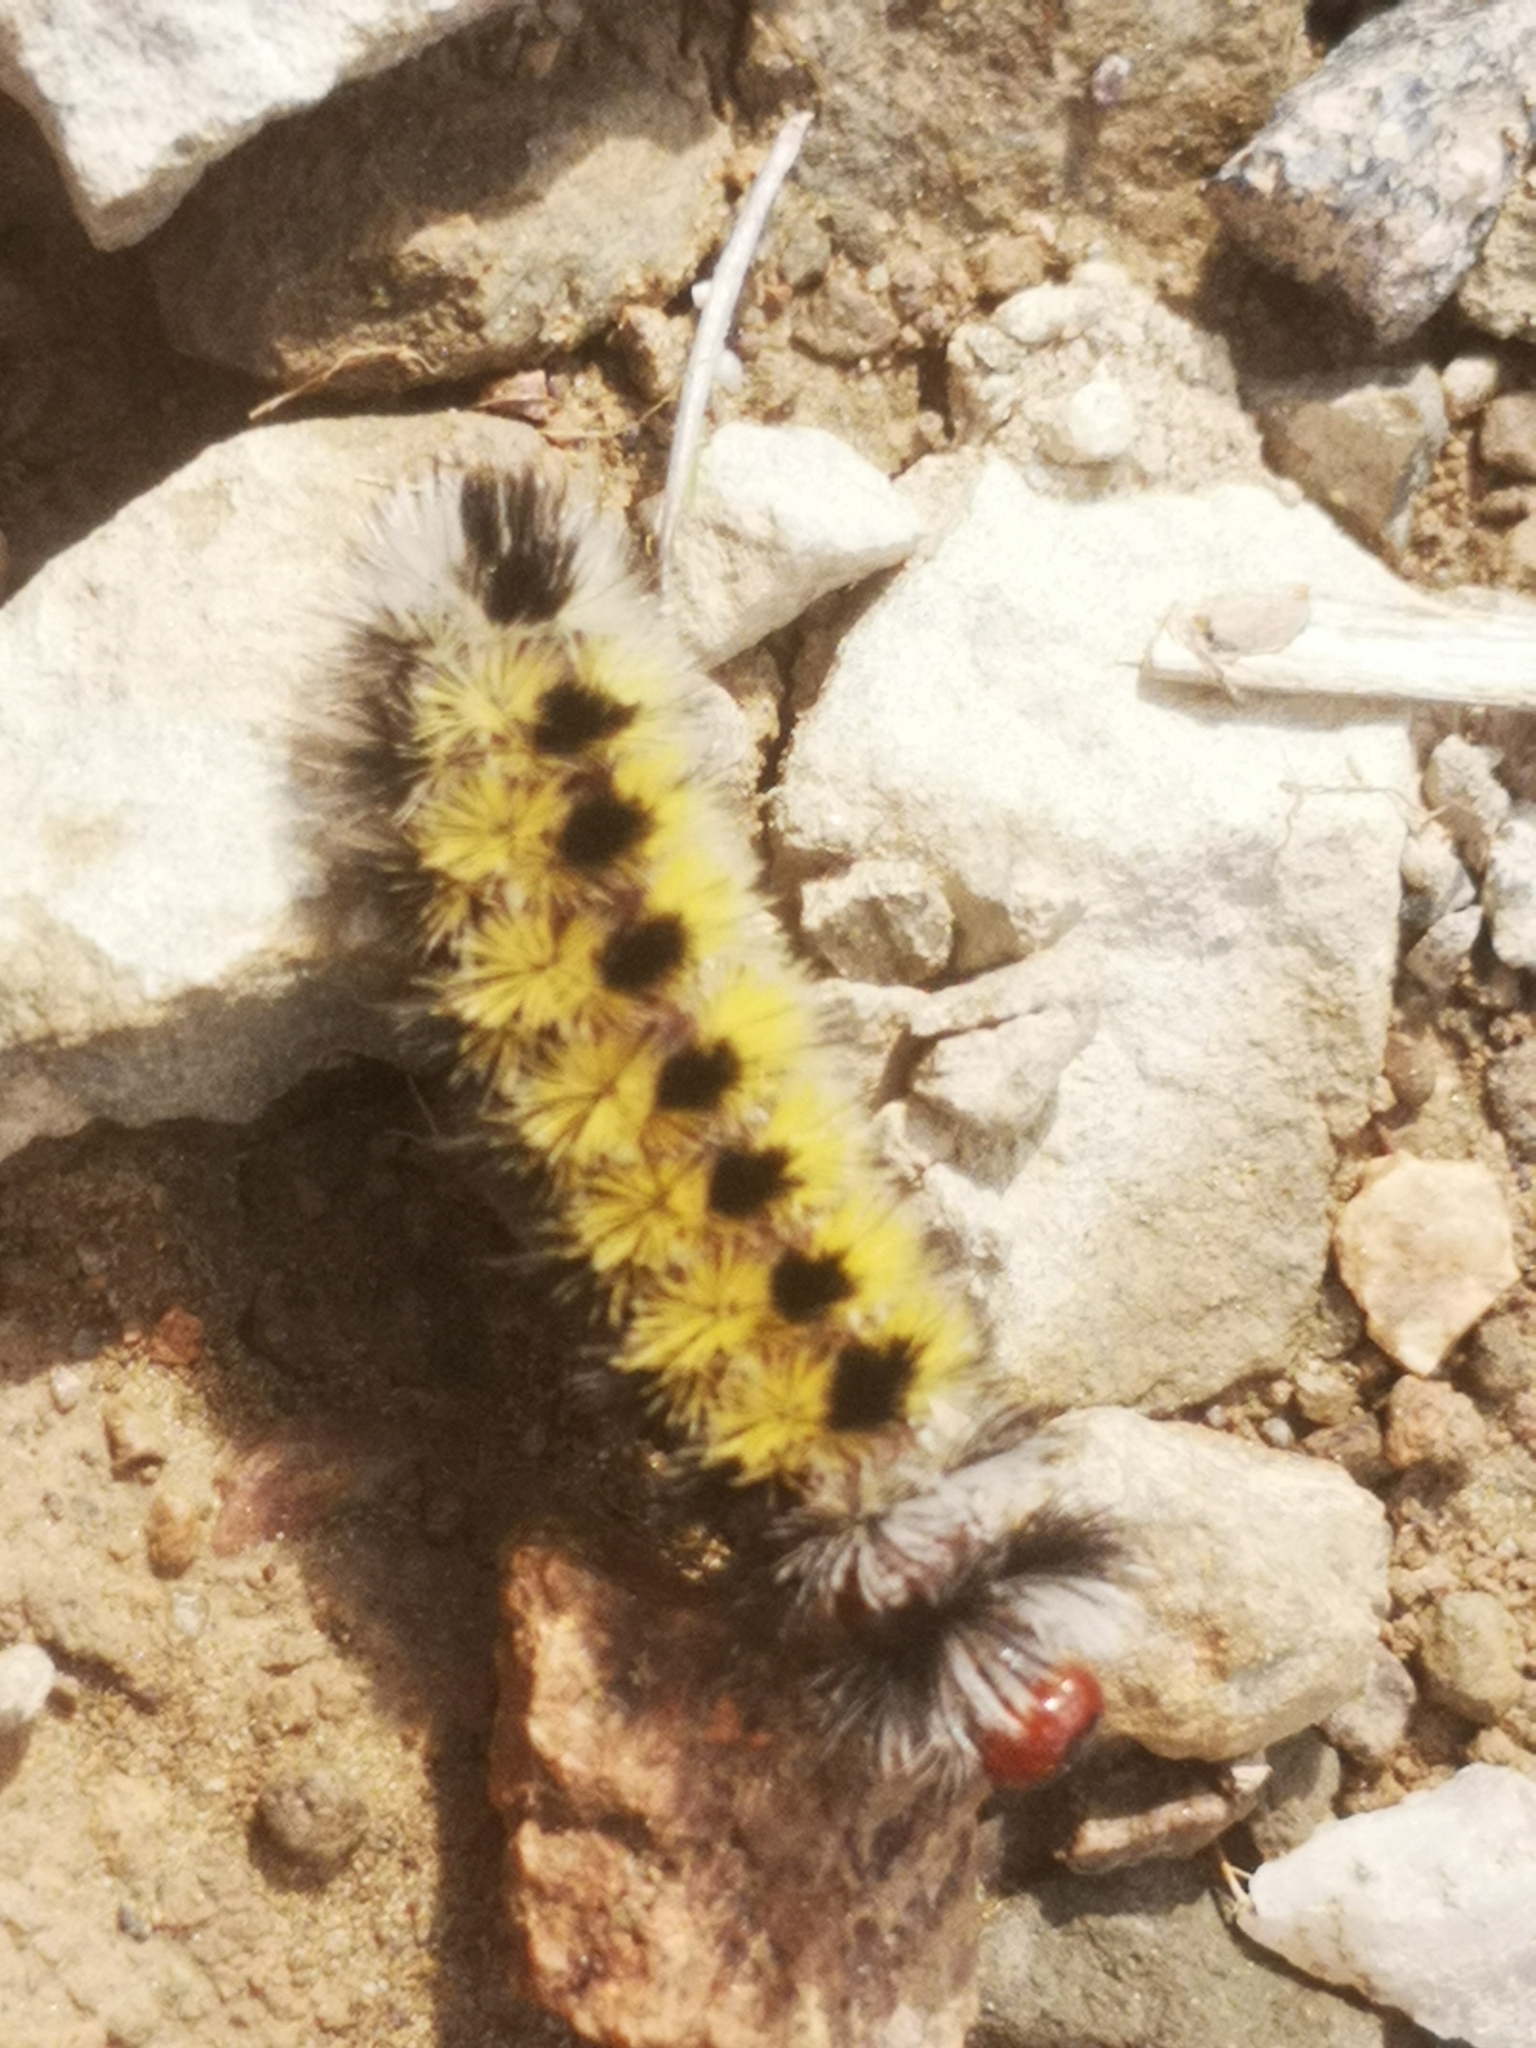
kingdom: Animalia
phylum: Arthropoda
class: Insecta
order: Lepidoptera
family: Erebidae
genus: Ctenucha
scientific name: Ctenucha virginica
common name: Virginia ctenucha moth
